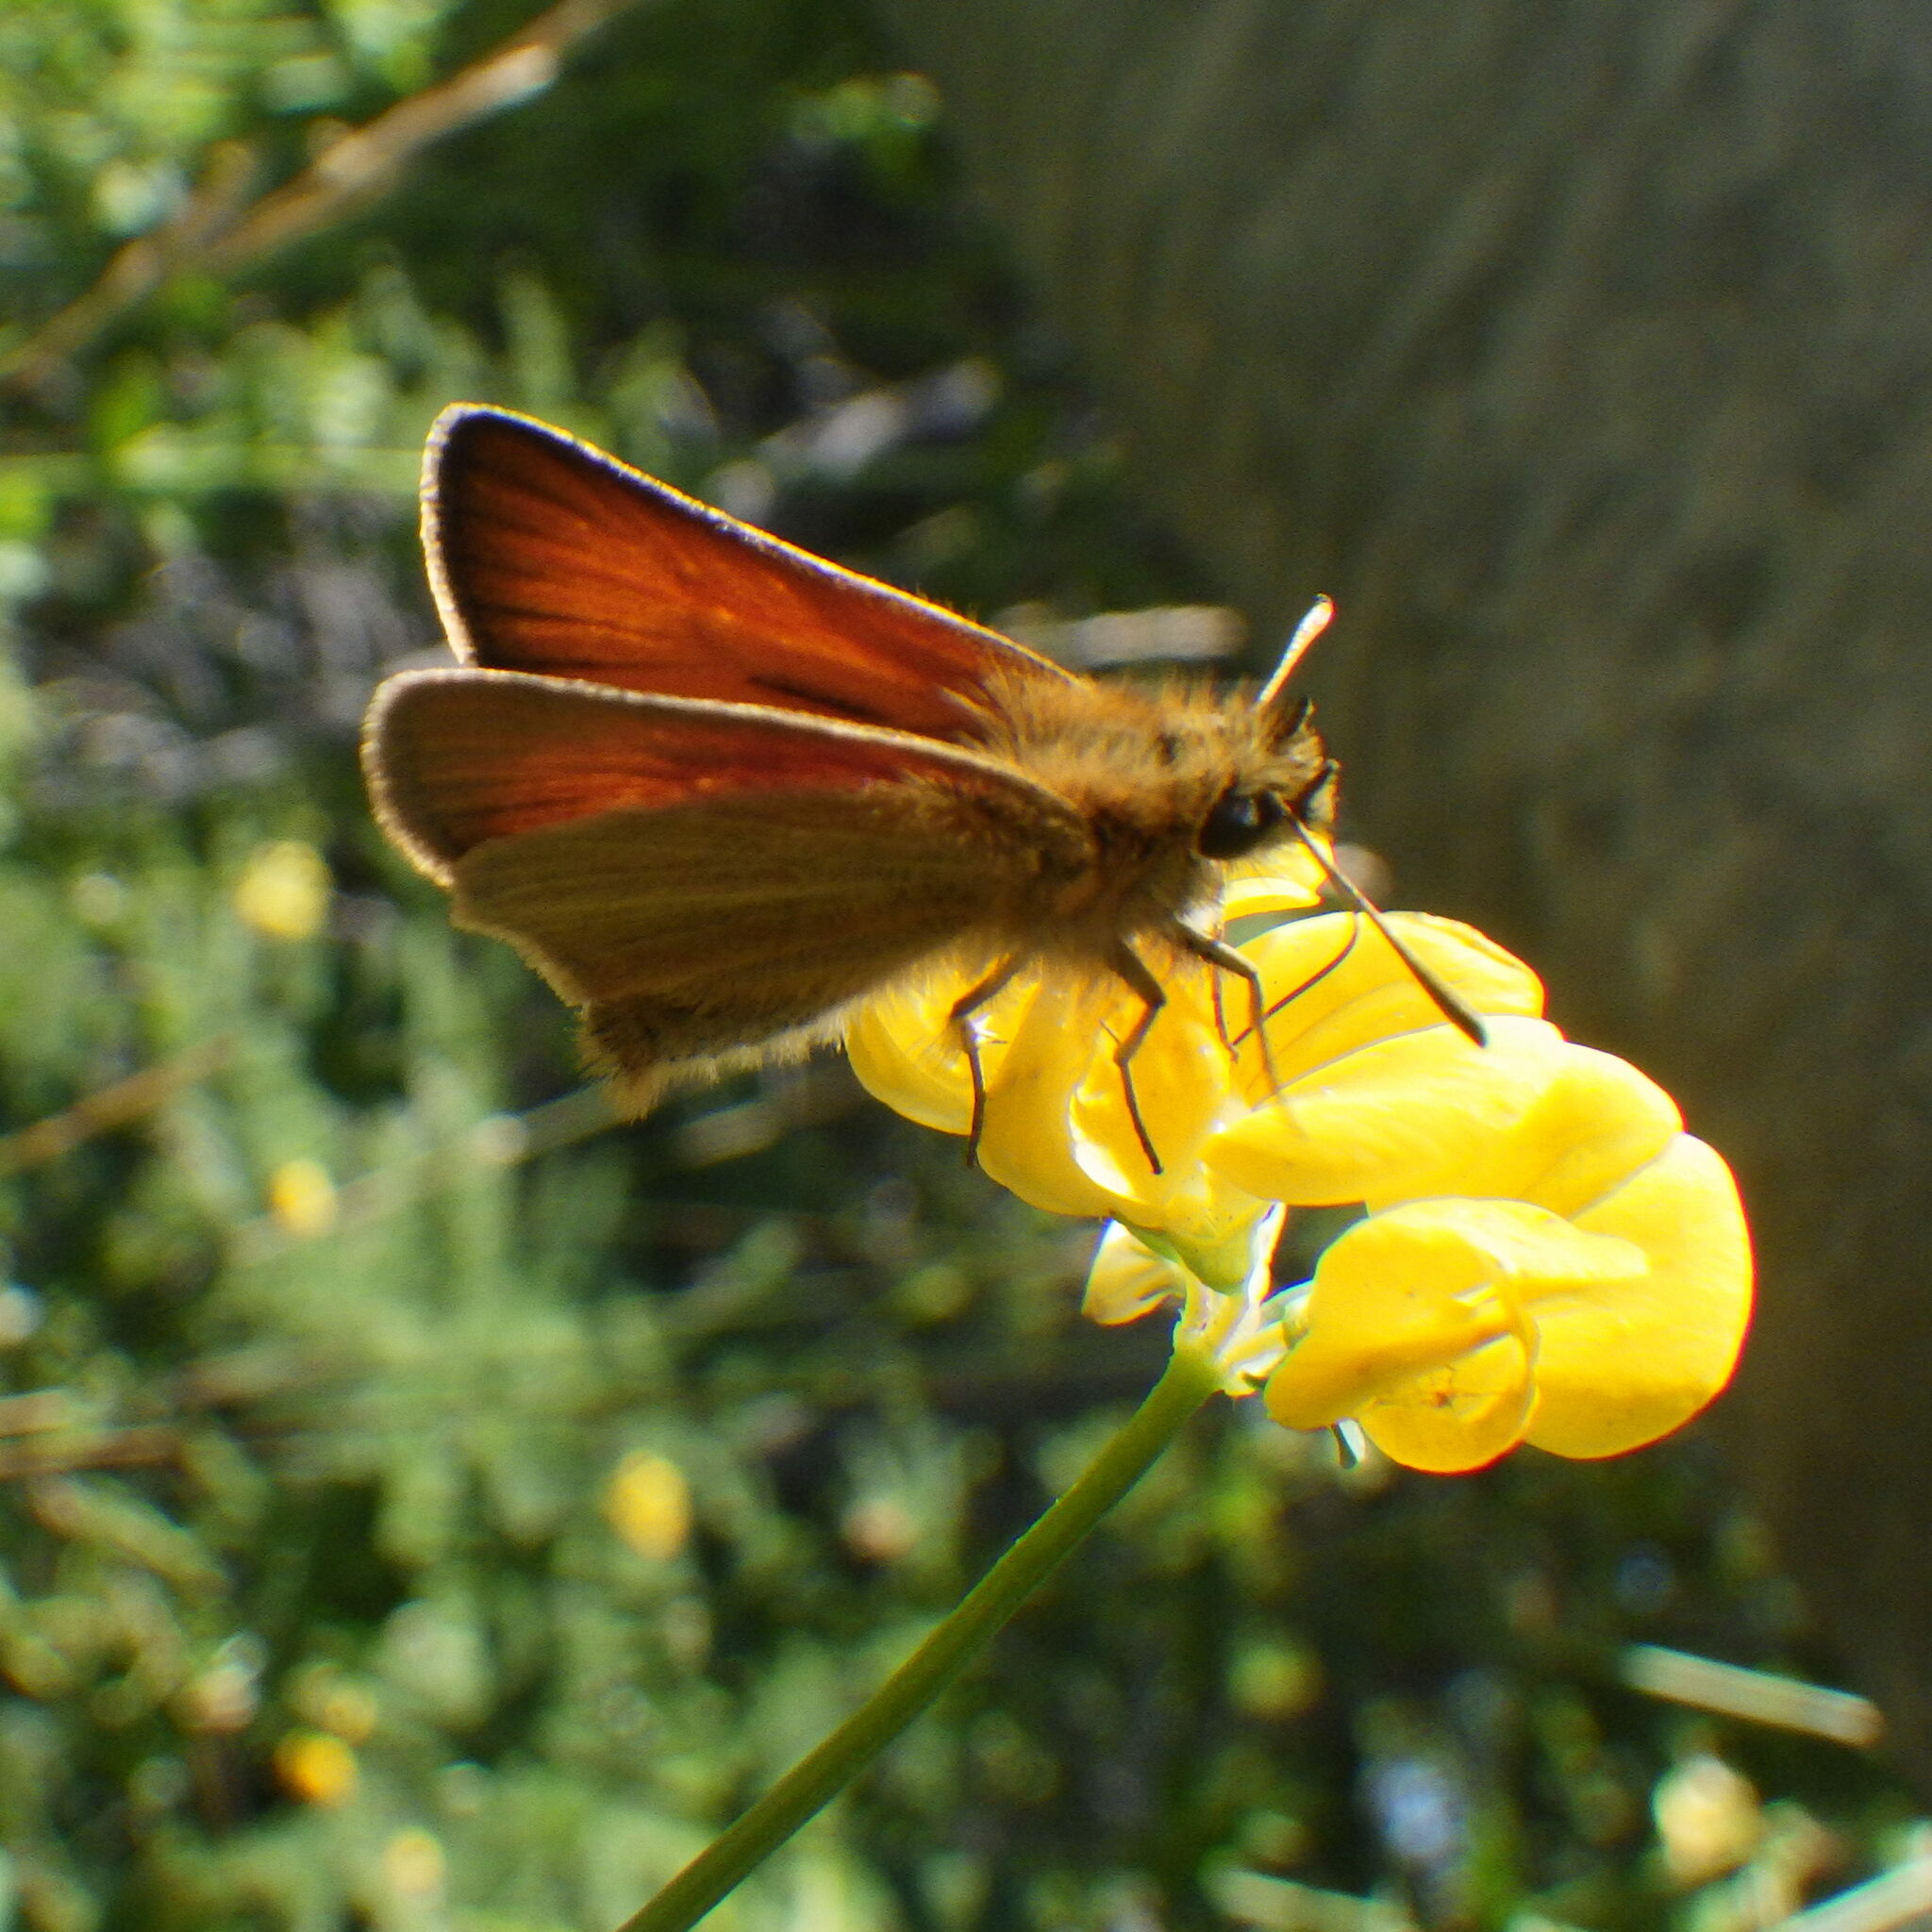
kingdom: Animalia
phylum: Arthropoda
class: Insecta
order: Lepidoptera
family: Hesperiidae
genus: Thymelicus
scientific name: Thymelicus lineola
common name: Essex skipper
